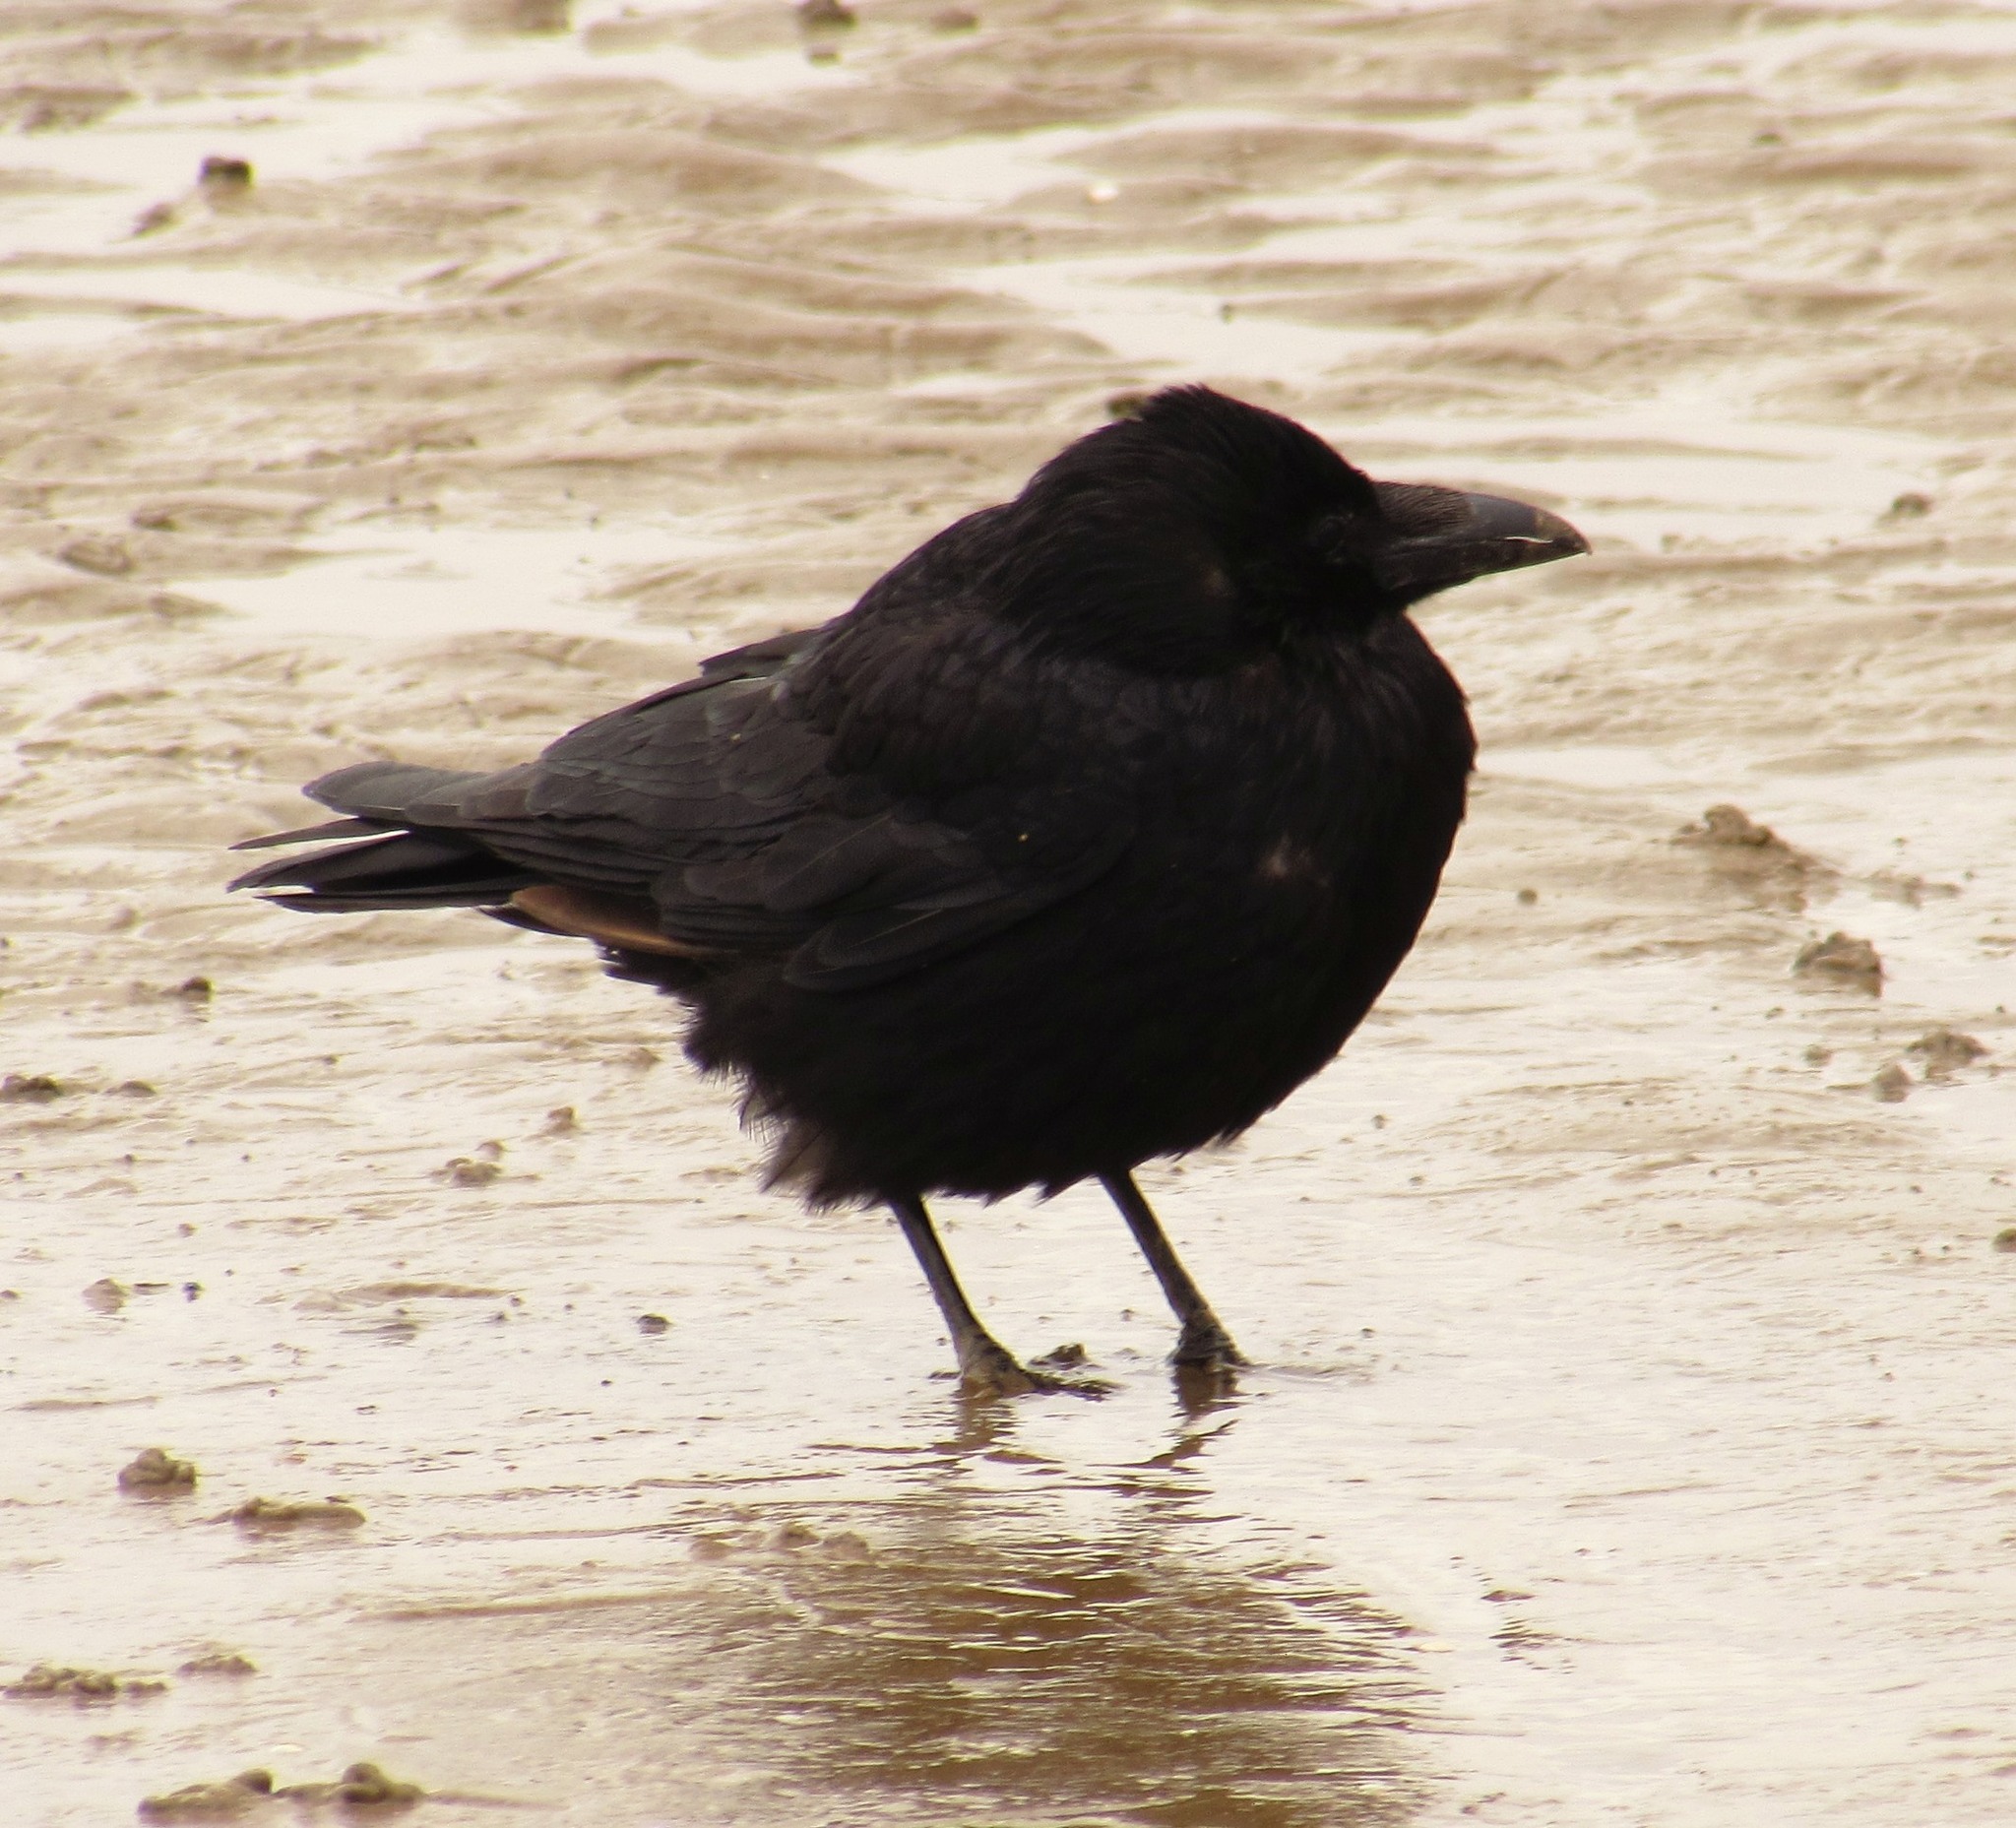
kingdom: Animalia
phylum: Chordata
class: Aves
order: Passeriformes
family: Corvidae
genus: Corvus
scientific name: Corvus corone
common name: Carrion crow
